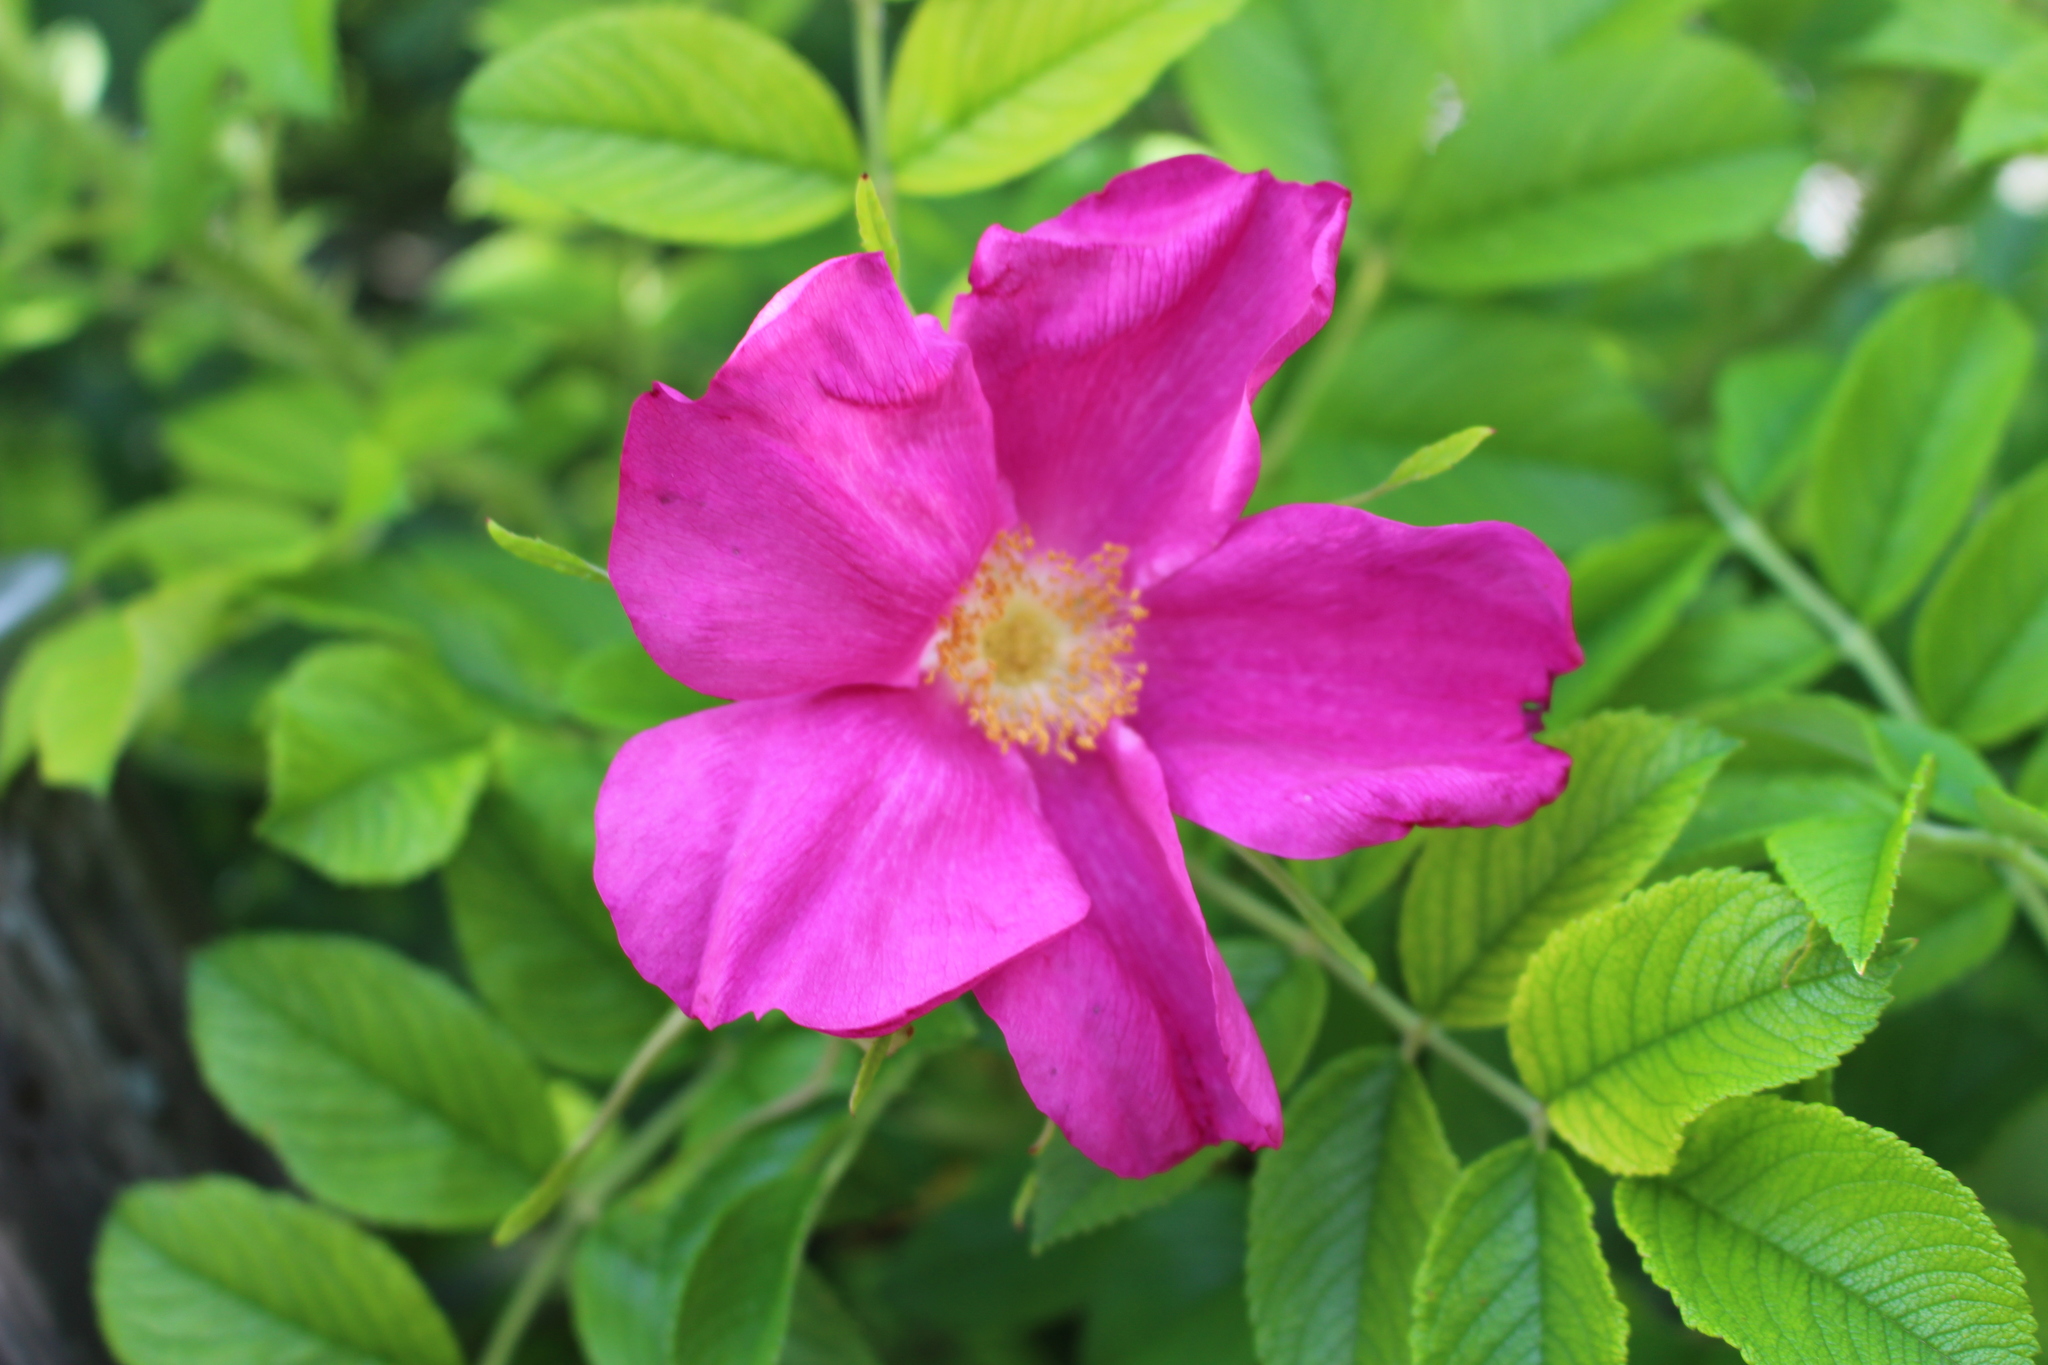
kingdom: Plantae
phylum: Tracheophyta
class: Magnoliopsida
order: Rosales
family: Rosaceae
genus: Rosa
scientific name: Rosa rugosa
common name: Japanese rose
